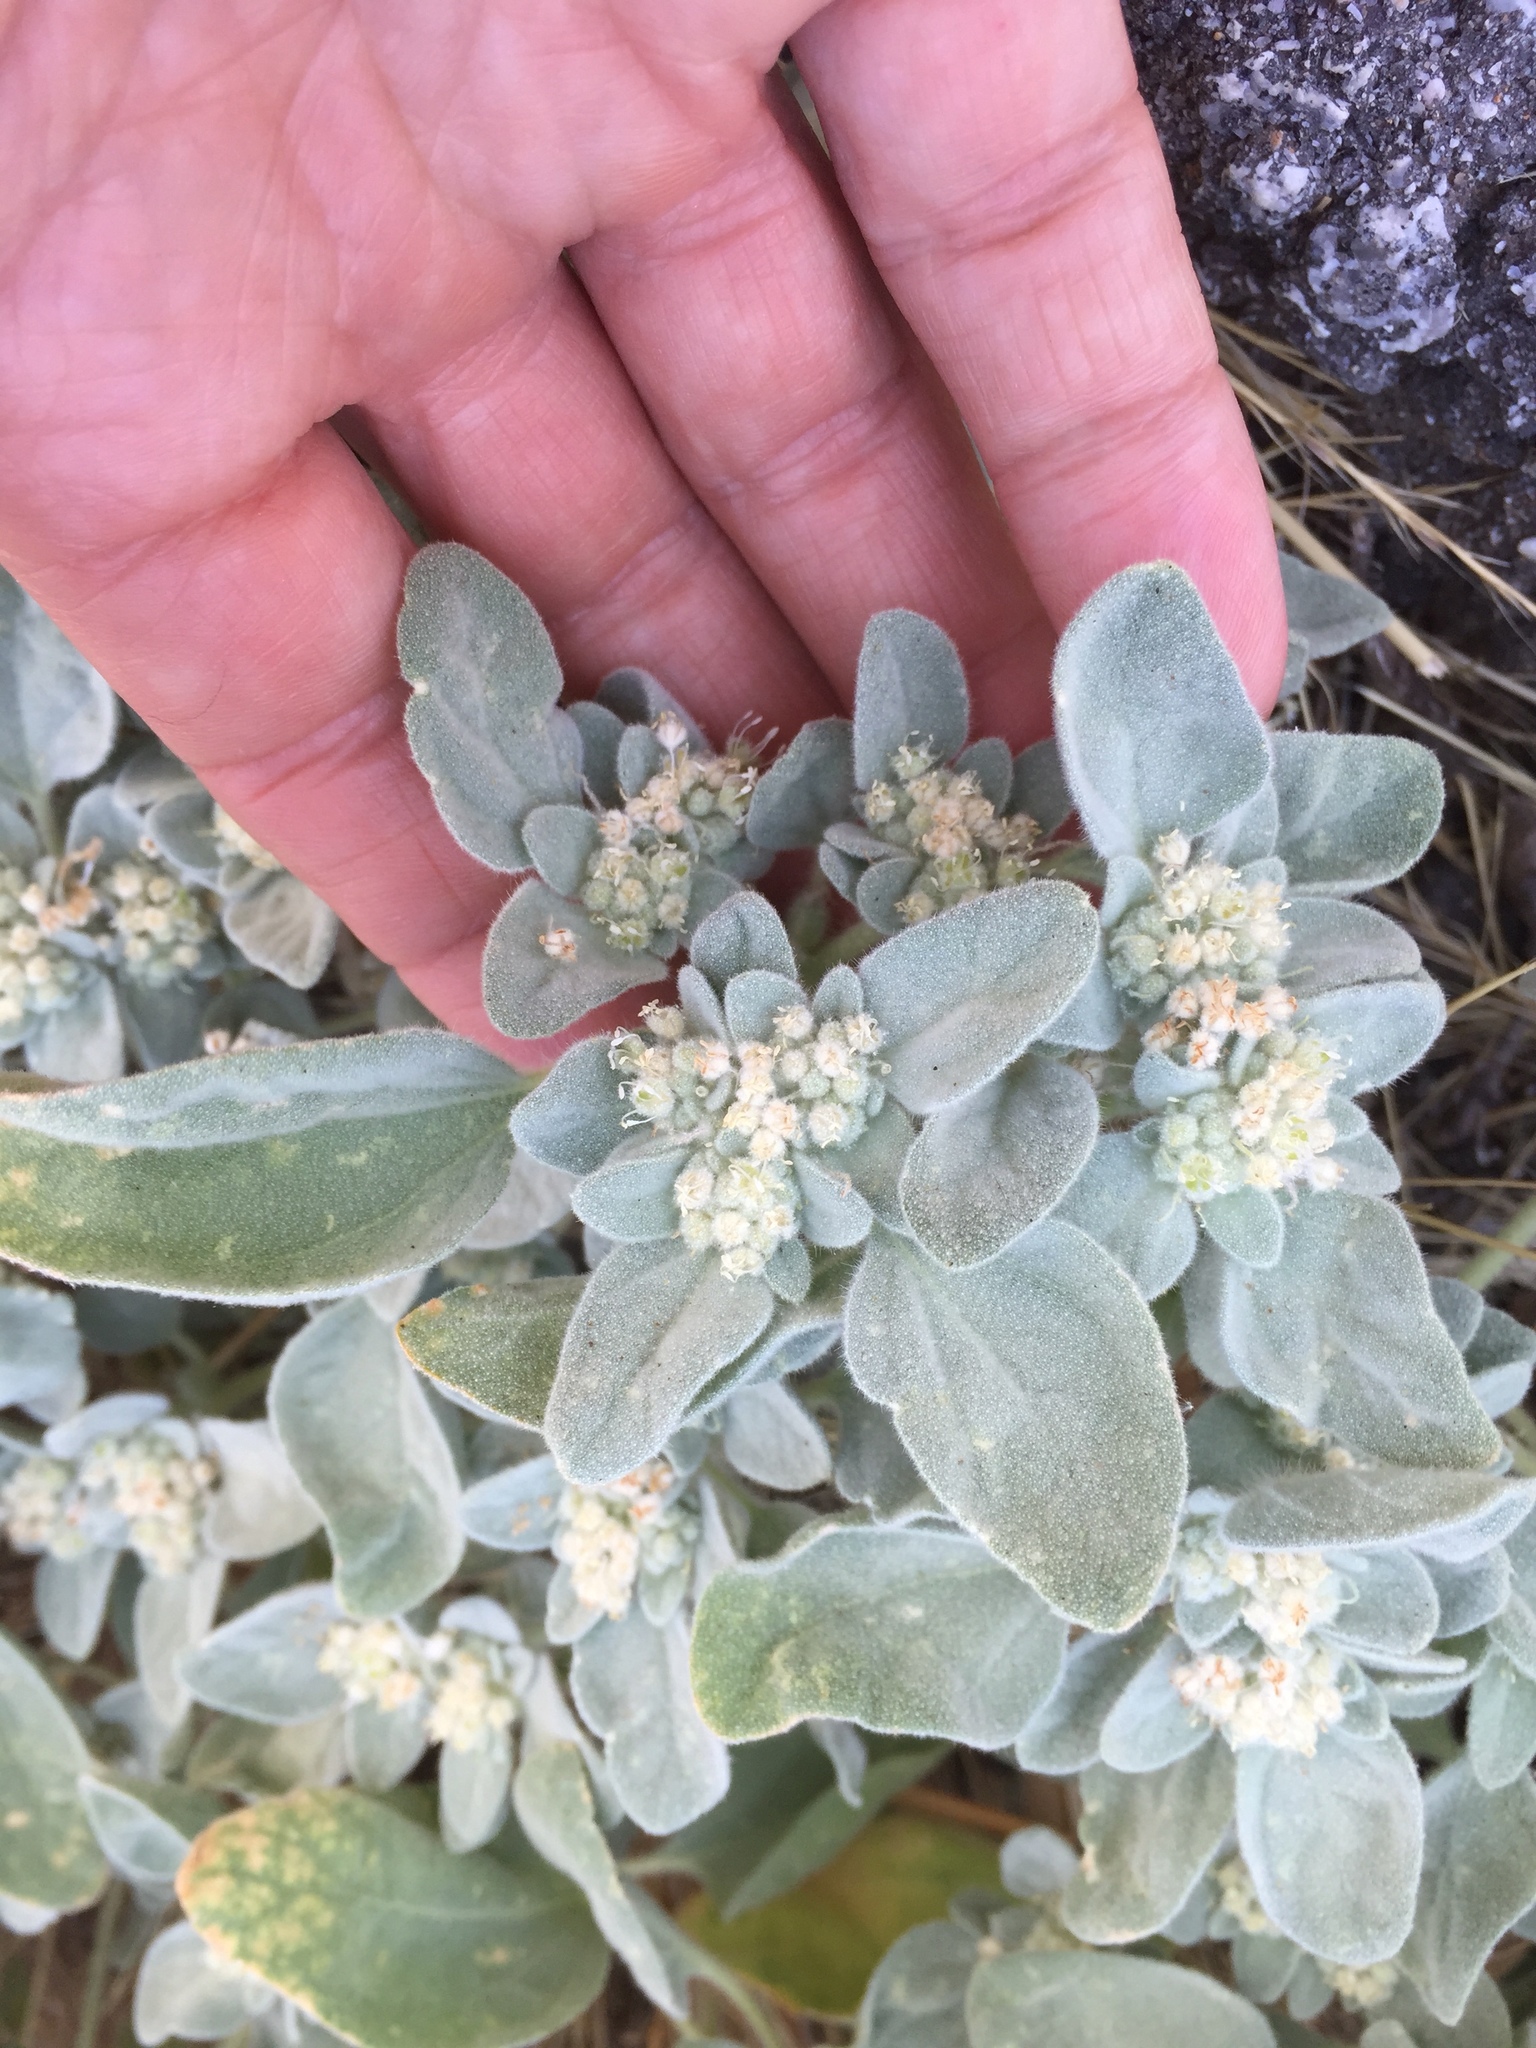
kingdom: Plantae
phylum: Tracheophyta
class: Magnoliopsida
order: Malpighiales
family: Euphorbiaceae
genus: Croton
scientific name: Croton setiger
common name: Dove weed
